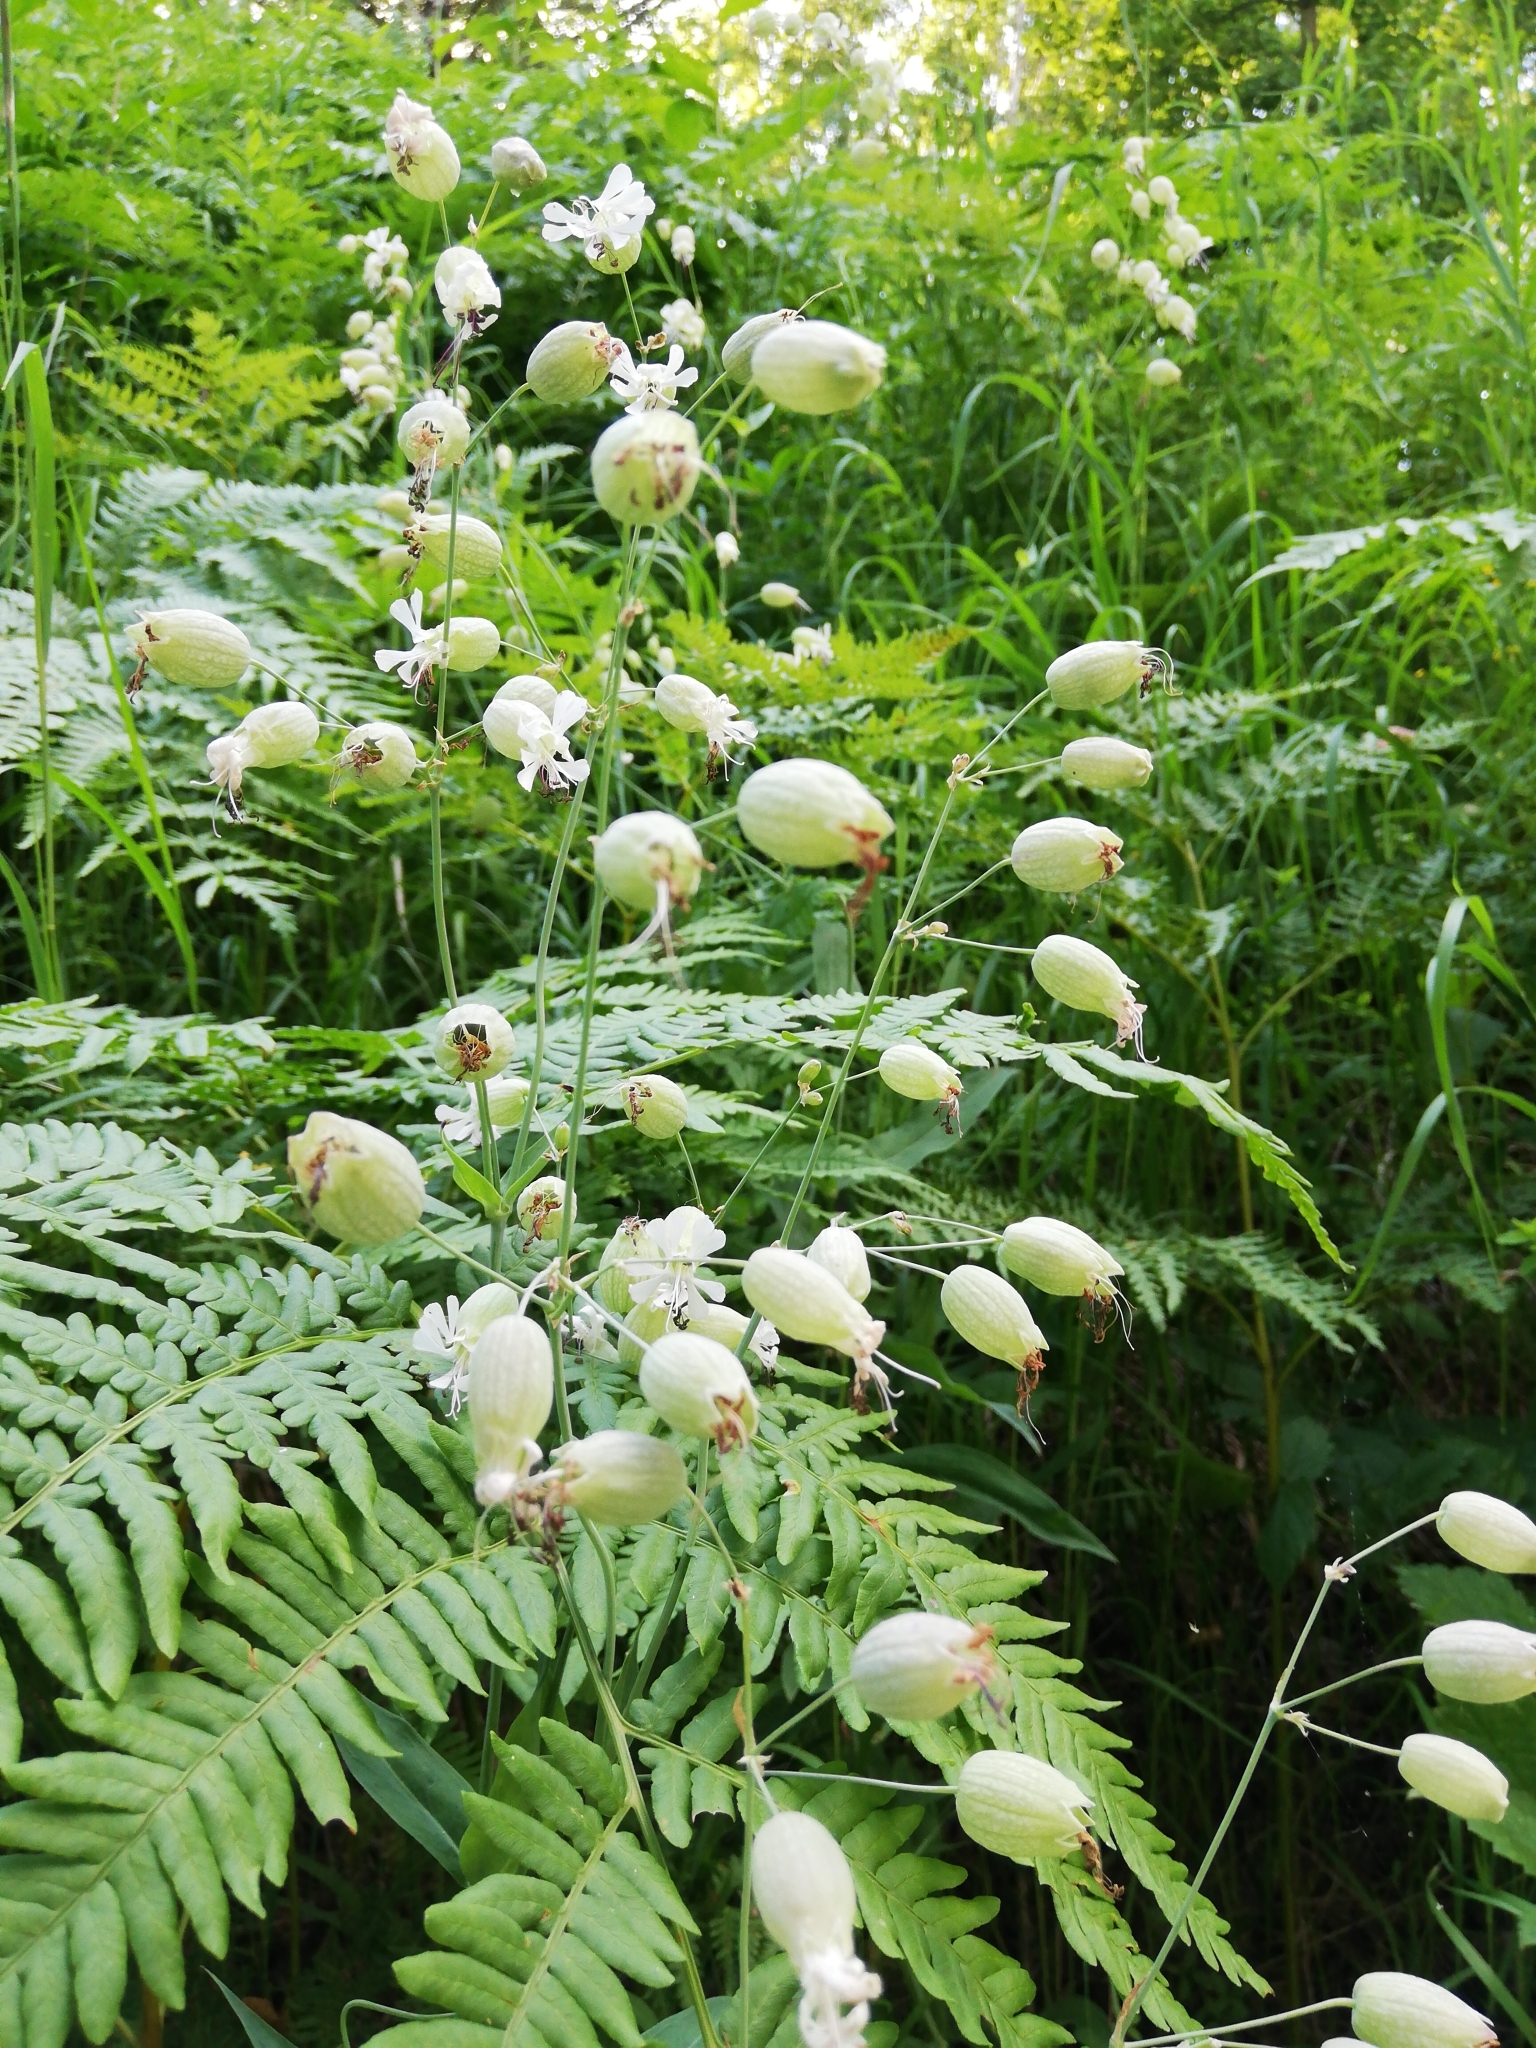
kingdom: Plantae
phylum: Tracheophyta
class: Magnoliopsida
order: Caryophyllales
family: Caryophyllaceae
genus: Silene
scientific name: Silene vulgaris
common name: Bladder campion
